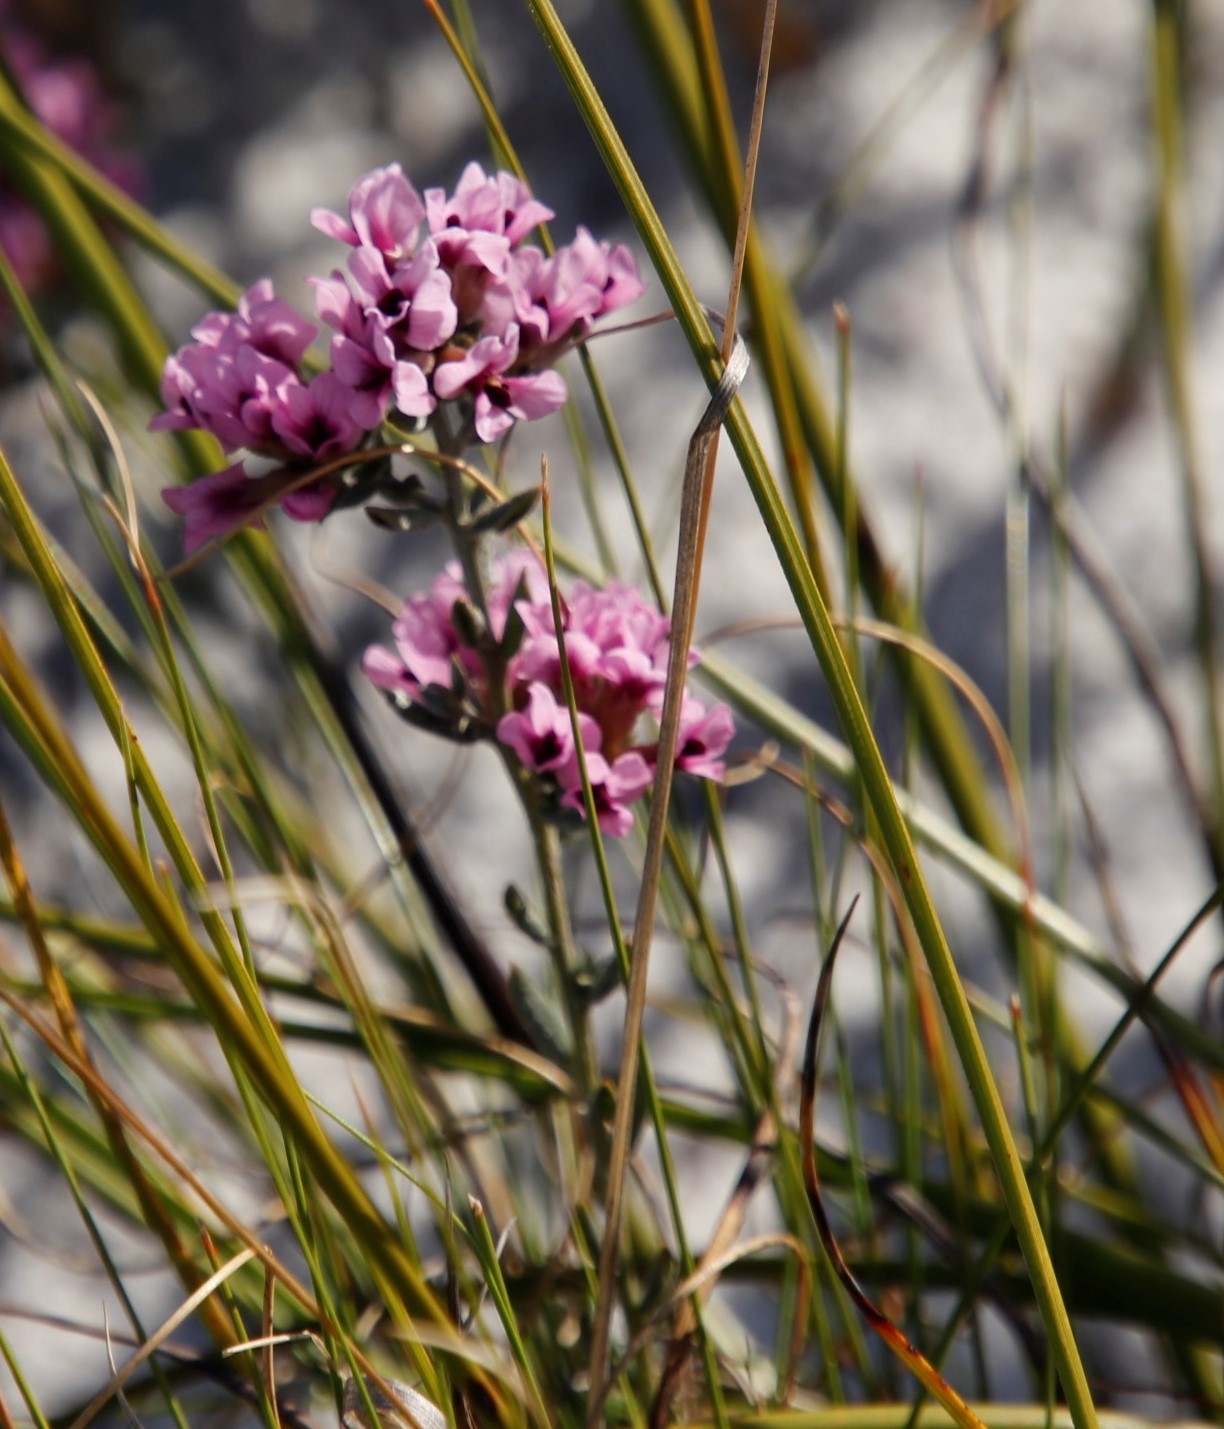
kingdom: Plantae
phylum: Tracheophyta
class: Magnoliopsida
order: Fabales
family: Fabaceae
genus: Amphithalea
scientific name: Amphithalea ericifolia
